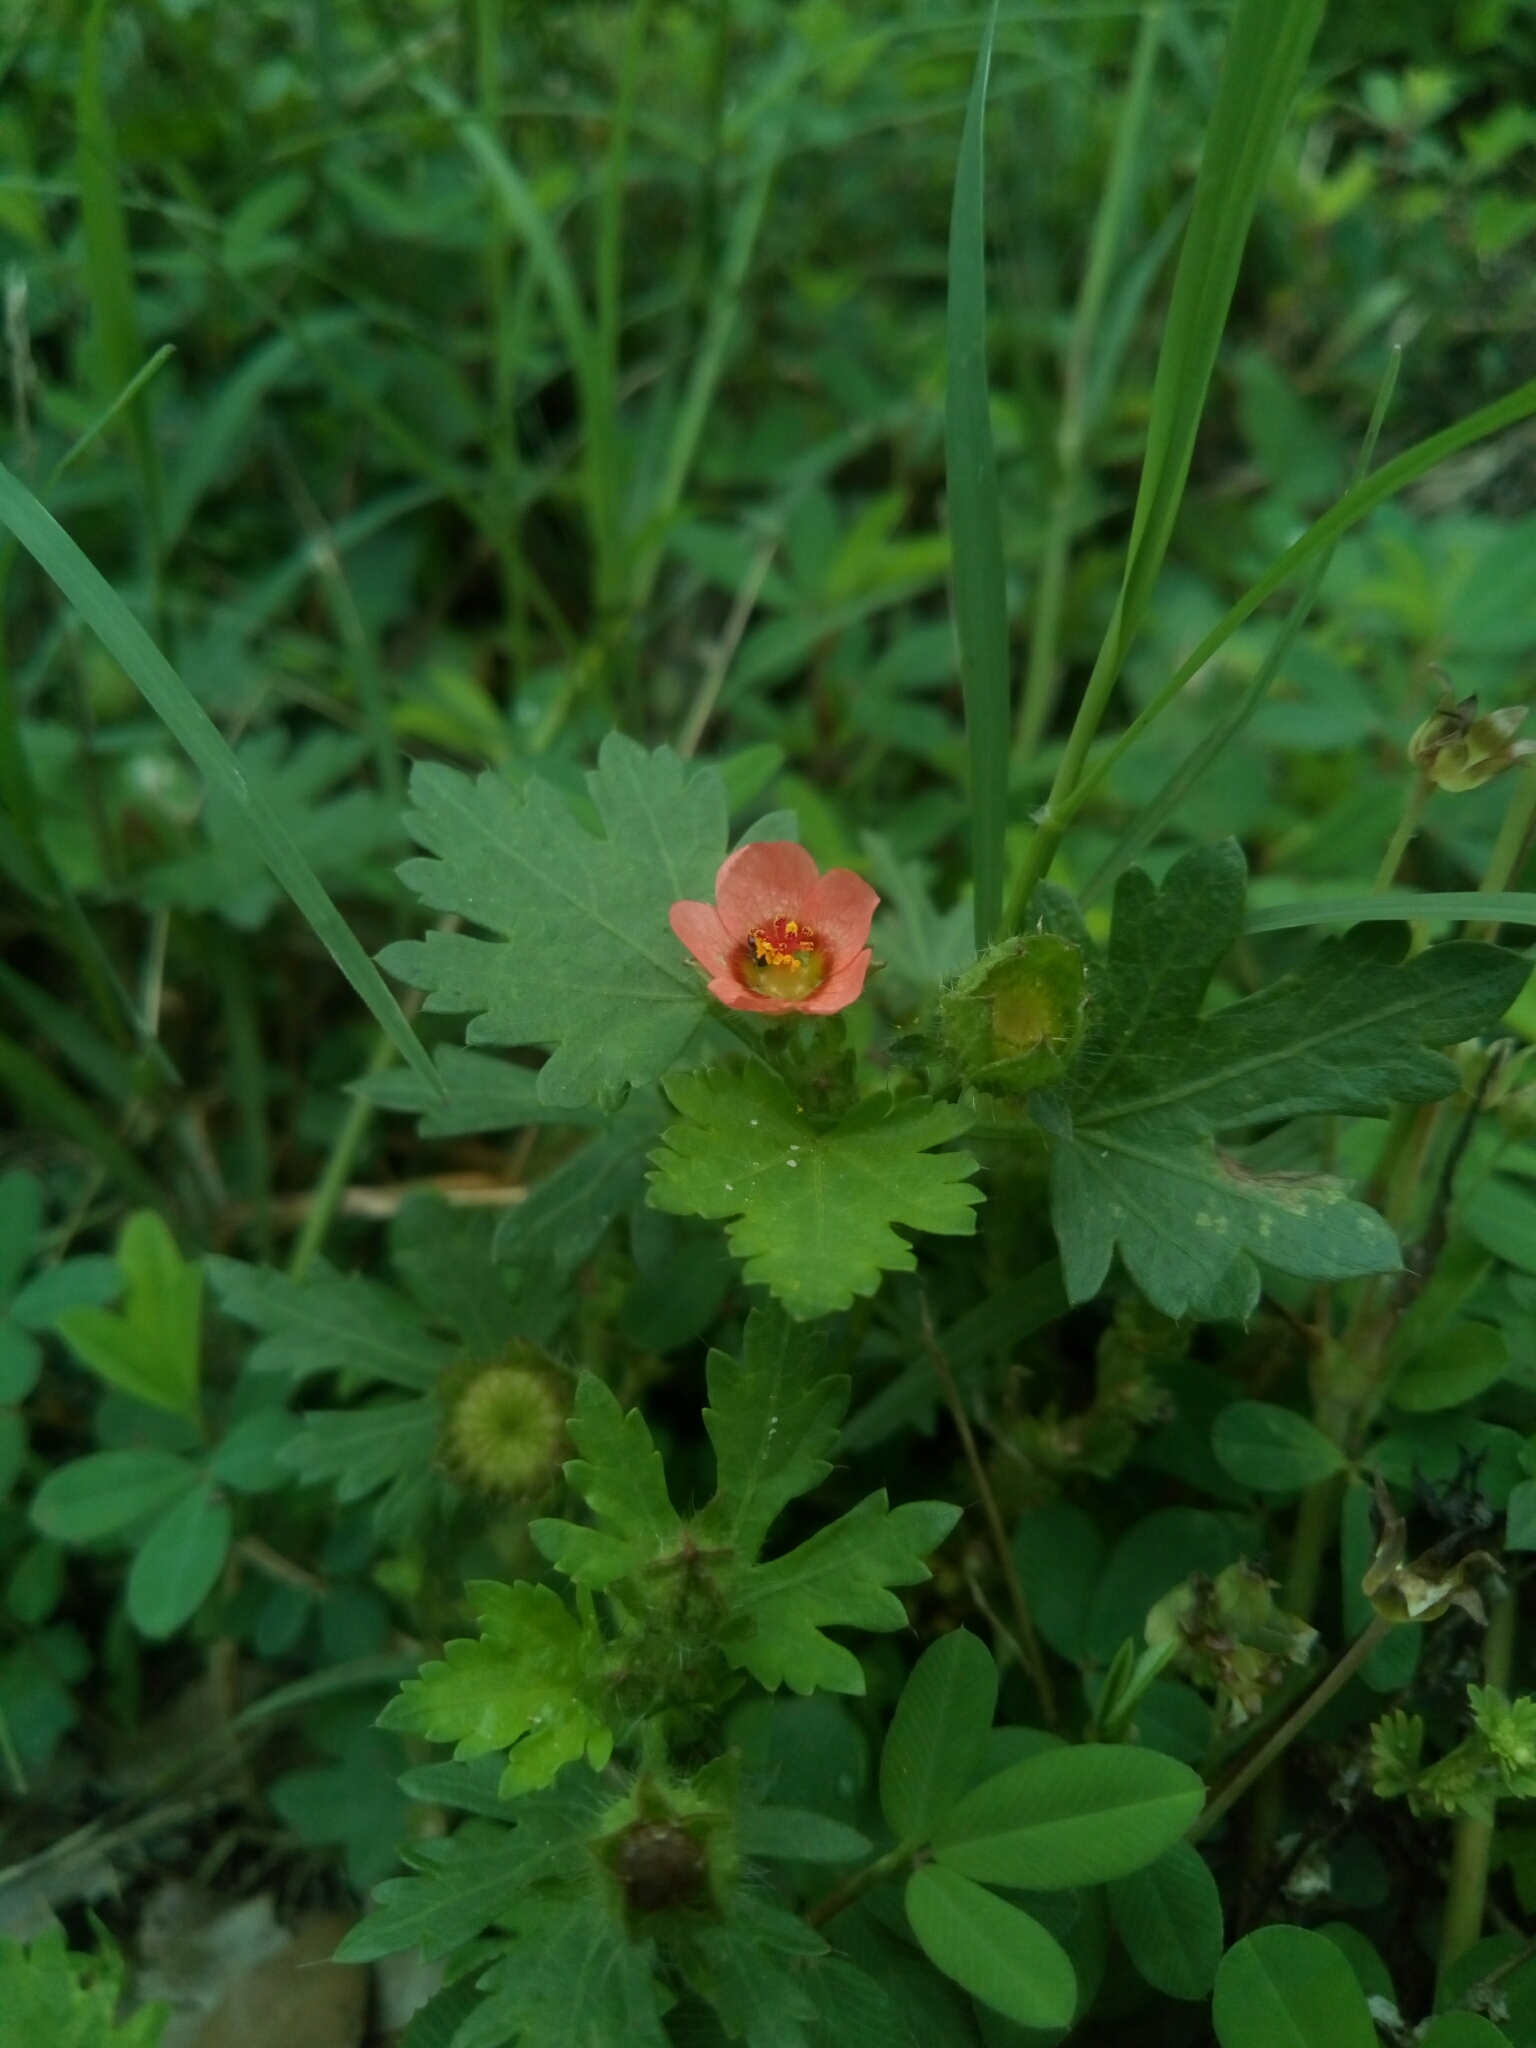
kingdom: Plantae
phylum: Tracheophyta
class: Magnoliopsida
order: Malvales
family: Malvaceae
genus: Modiola
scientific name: Modiola caroliniana
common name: Carolina bristlemallow
